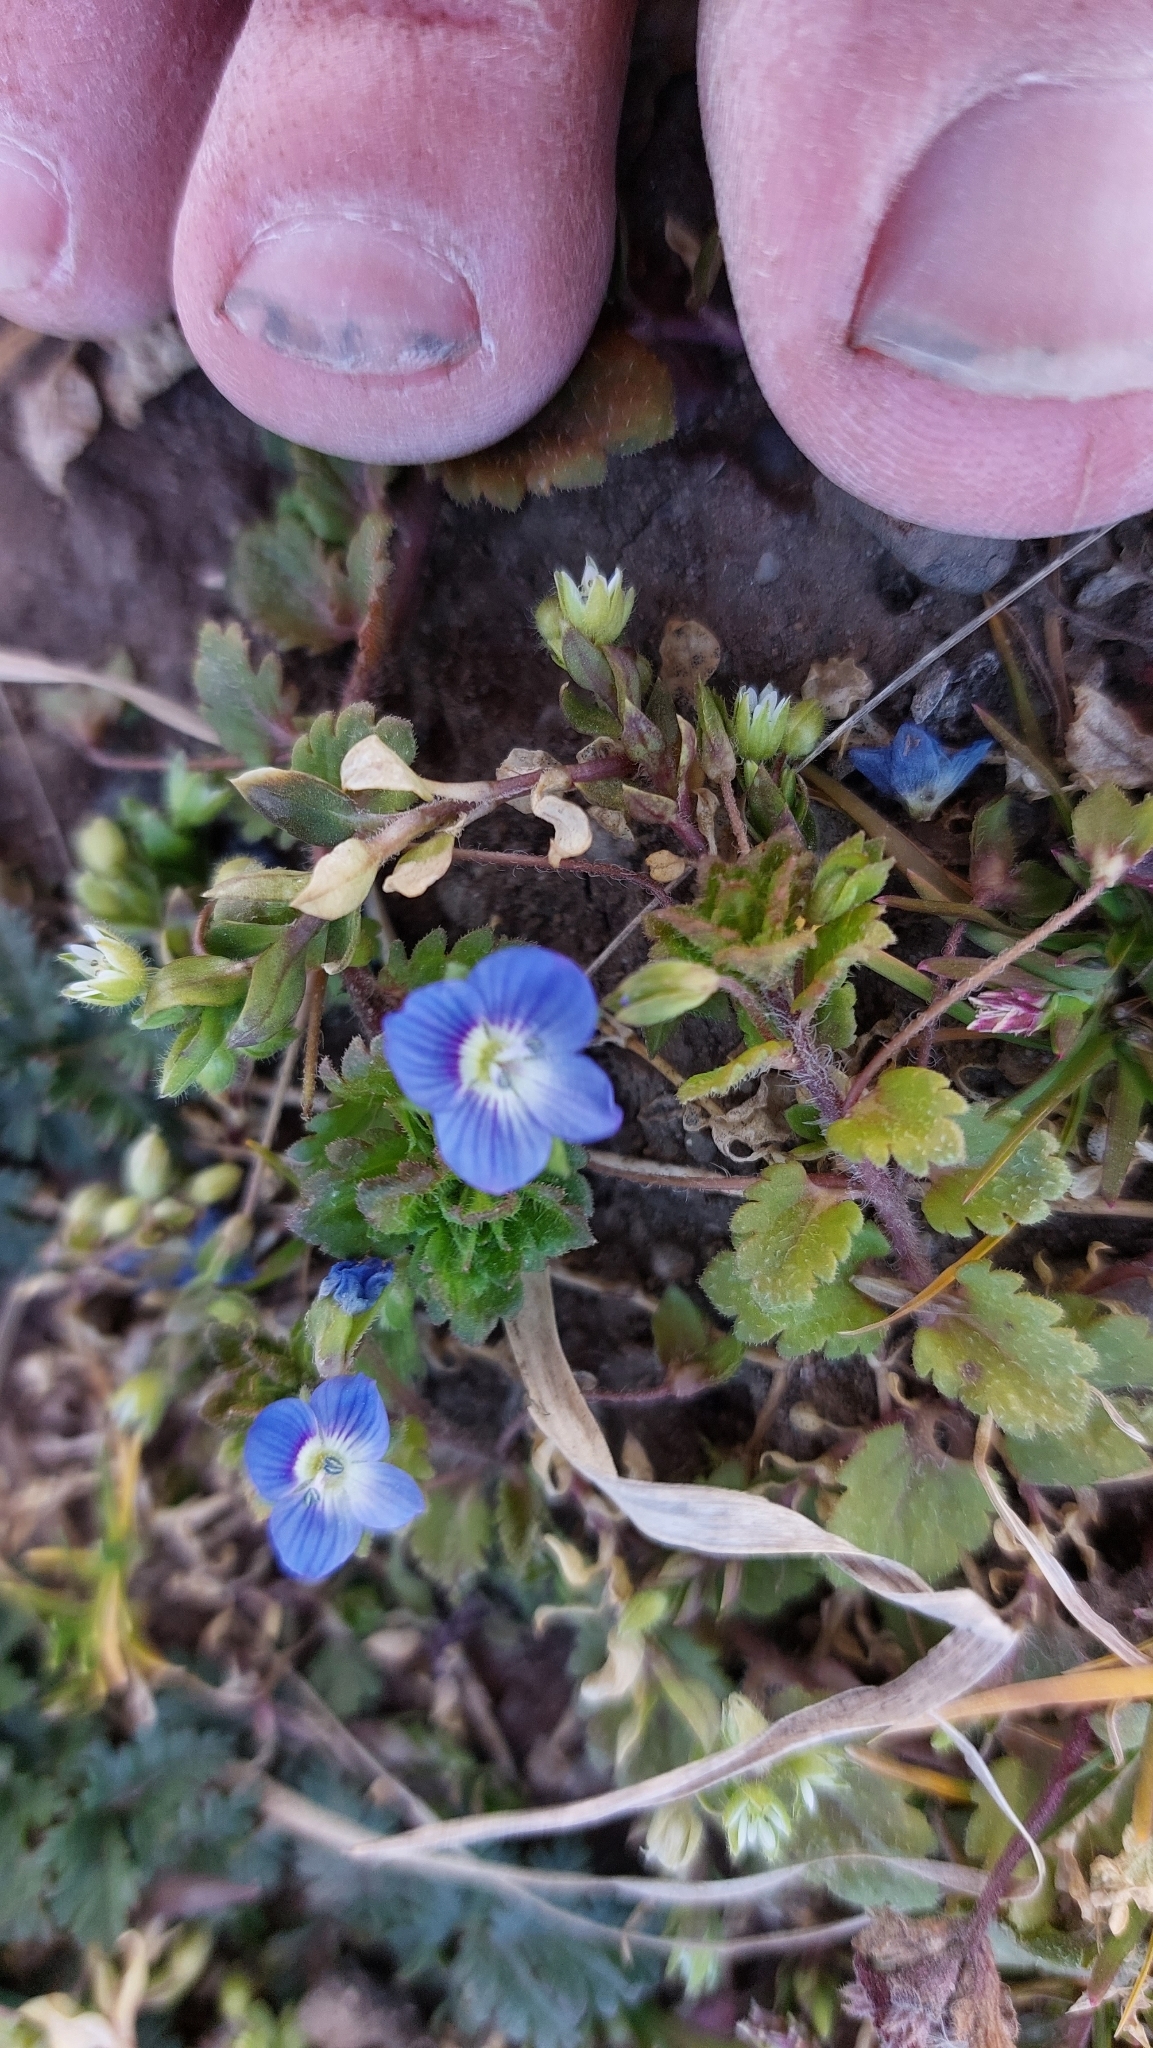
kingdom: Plantae
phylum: Tracheophyta
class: Magnoliopsida
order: Lamiales
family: Plantaginaceae
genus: Veronica
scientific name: Veronica persica
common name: Common field-speedwell
